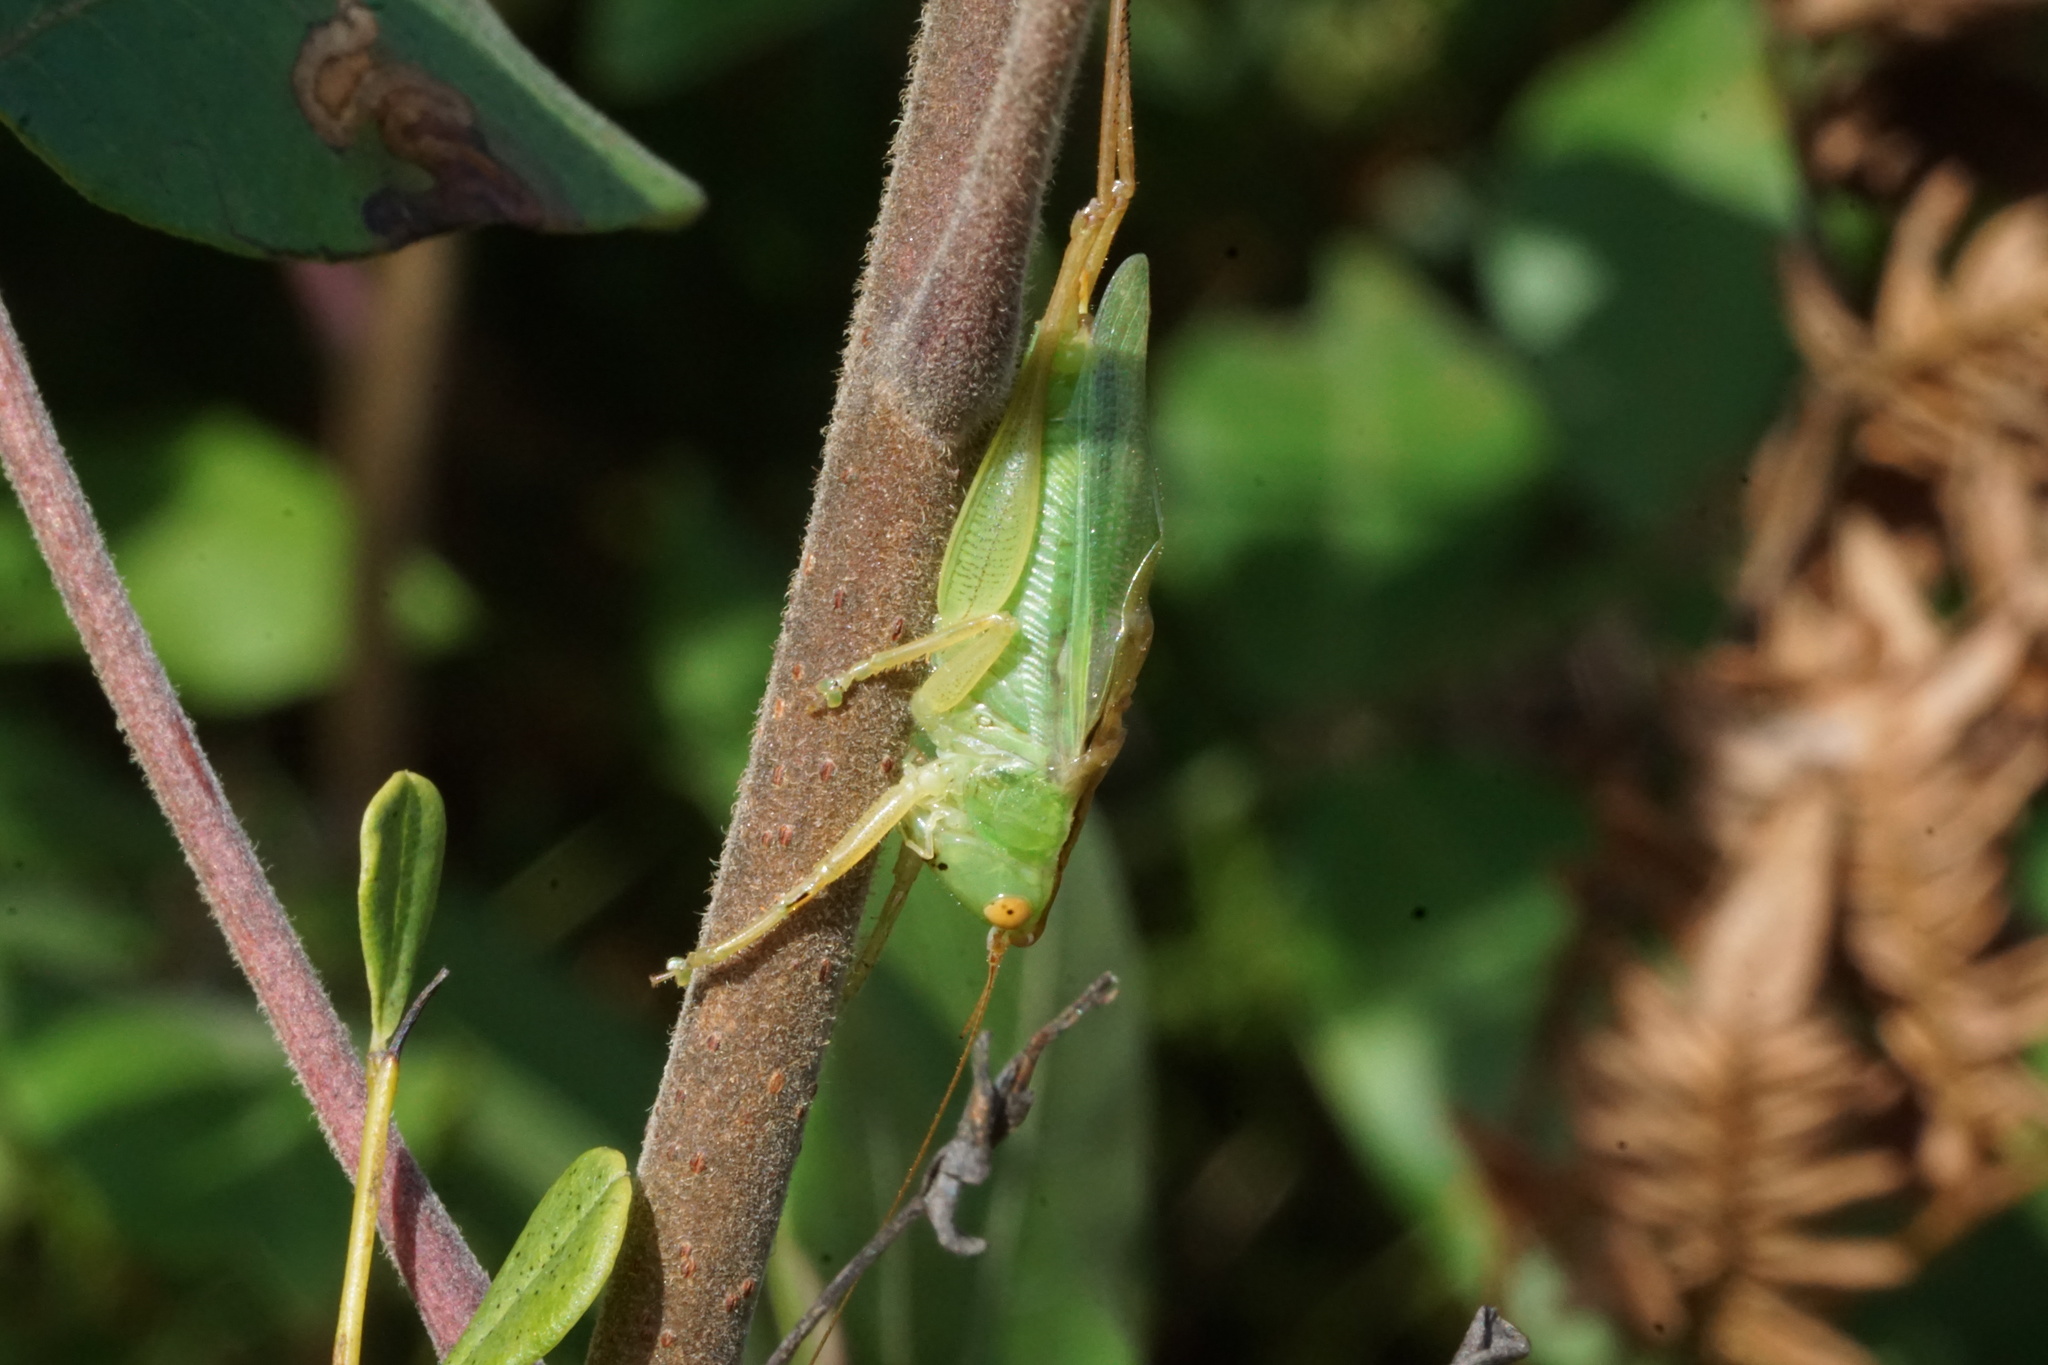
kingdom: Animalia
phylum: Arthropoda
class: Insecta
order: Orthoptera
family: Tettigoniidae
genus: Orchelimum
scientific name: Orchelimum vulgare
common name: Common meadow katydid
